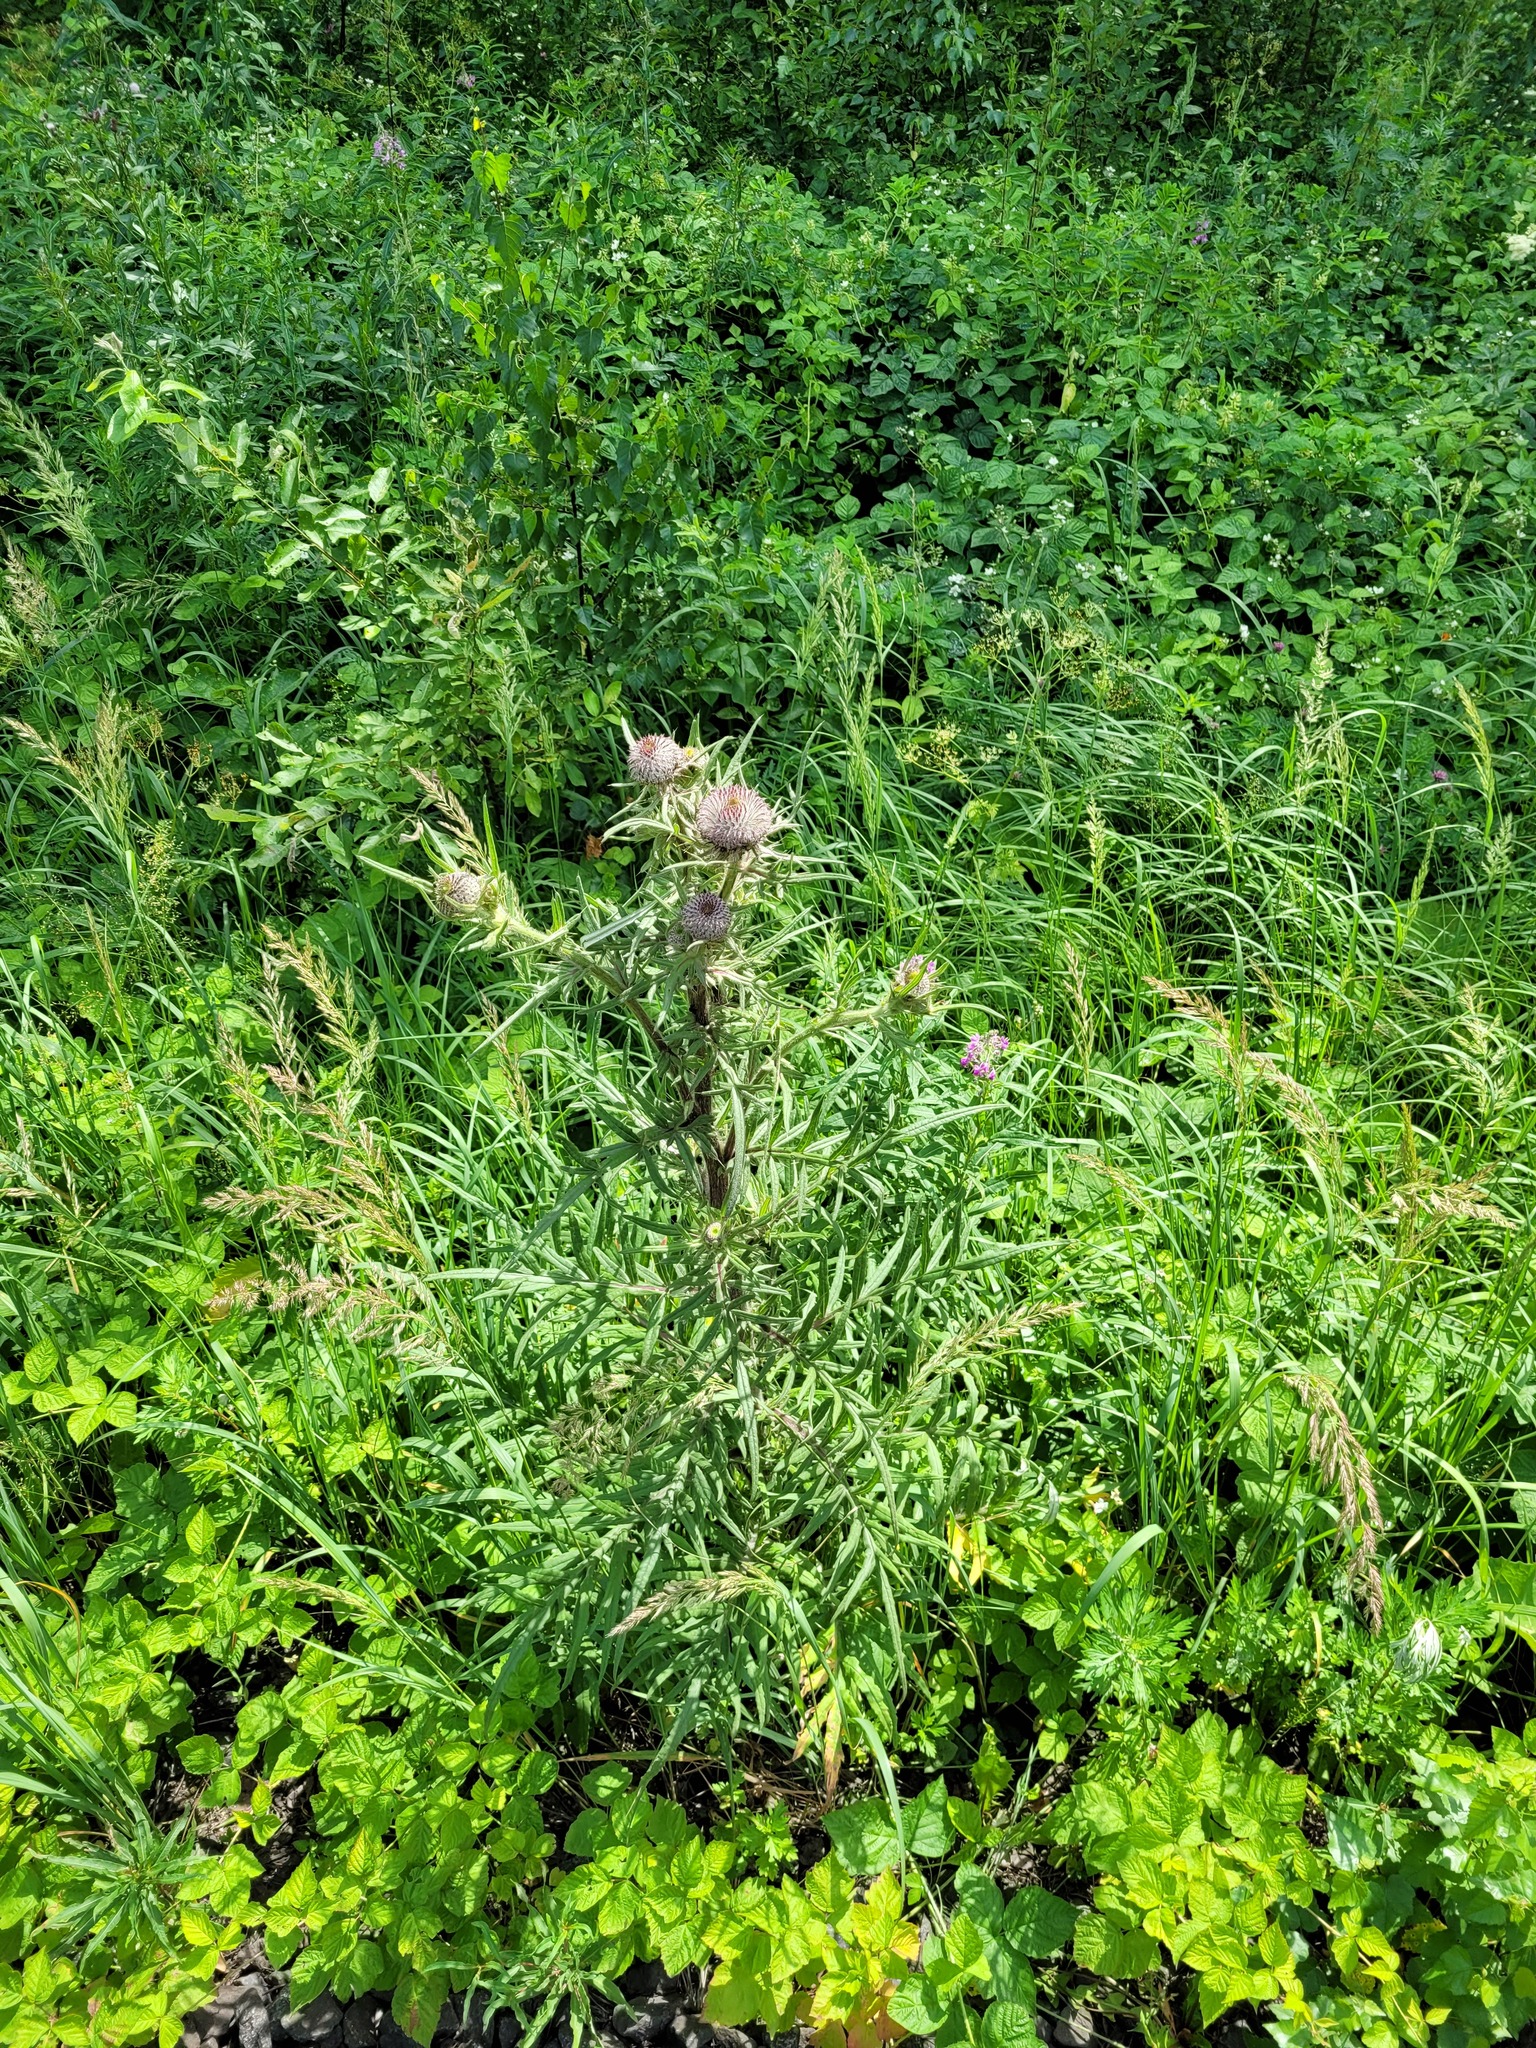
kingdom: Plantae
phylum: Tracheophyta
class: Magnoliopsida
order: Asterales
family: Asteraceae
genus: Lophiolepis
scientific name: Lophiolepis decussata
